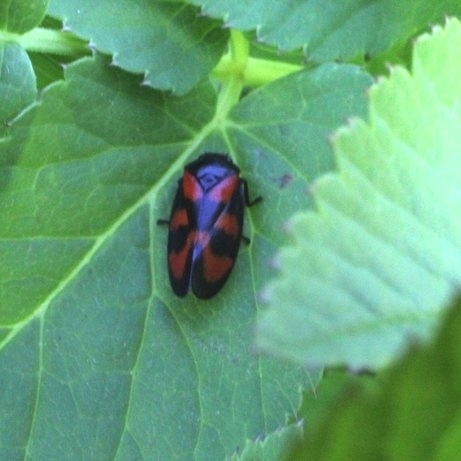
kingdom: Animalia
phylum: Arthropoda
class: Insecta
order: Hemiptera
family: Cercopidae
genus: Cercopis
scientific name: Cercopis vulnerata
